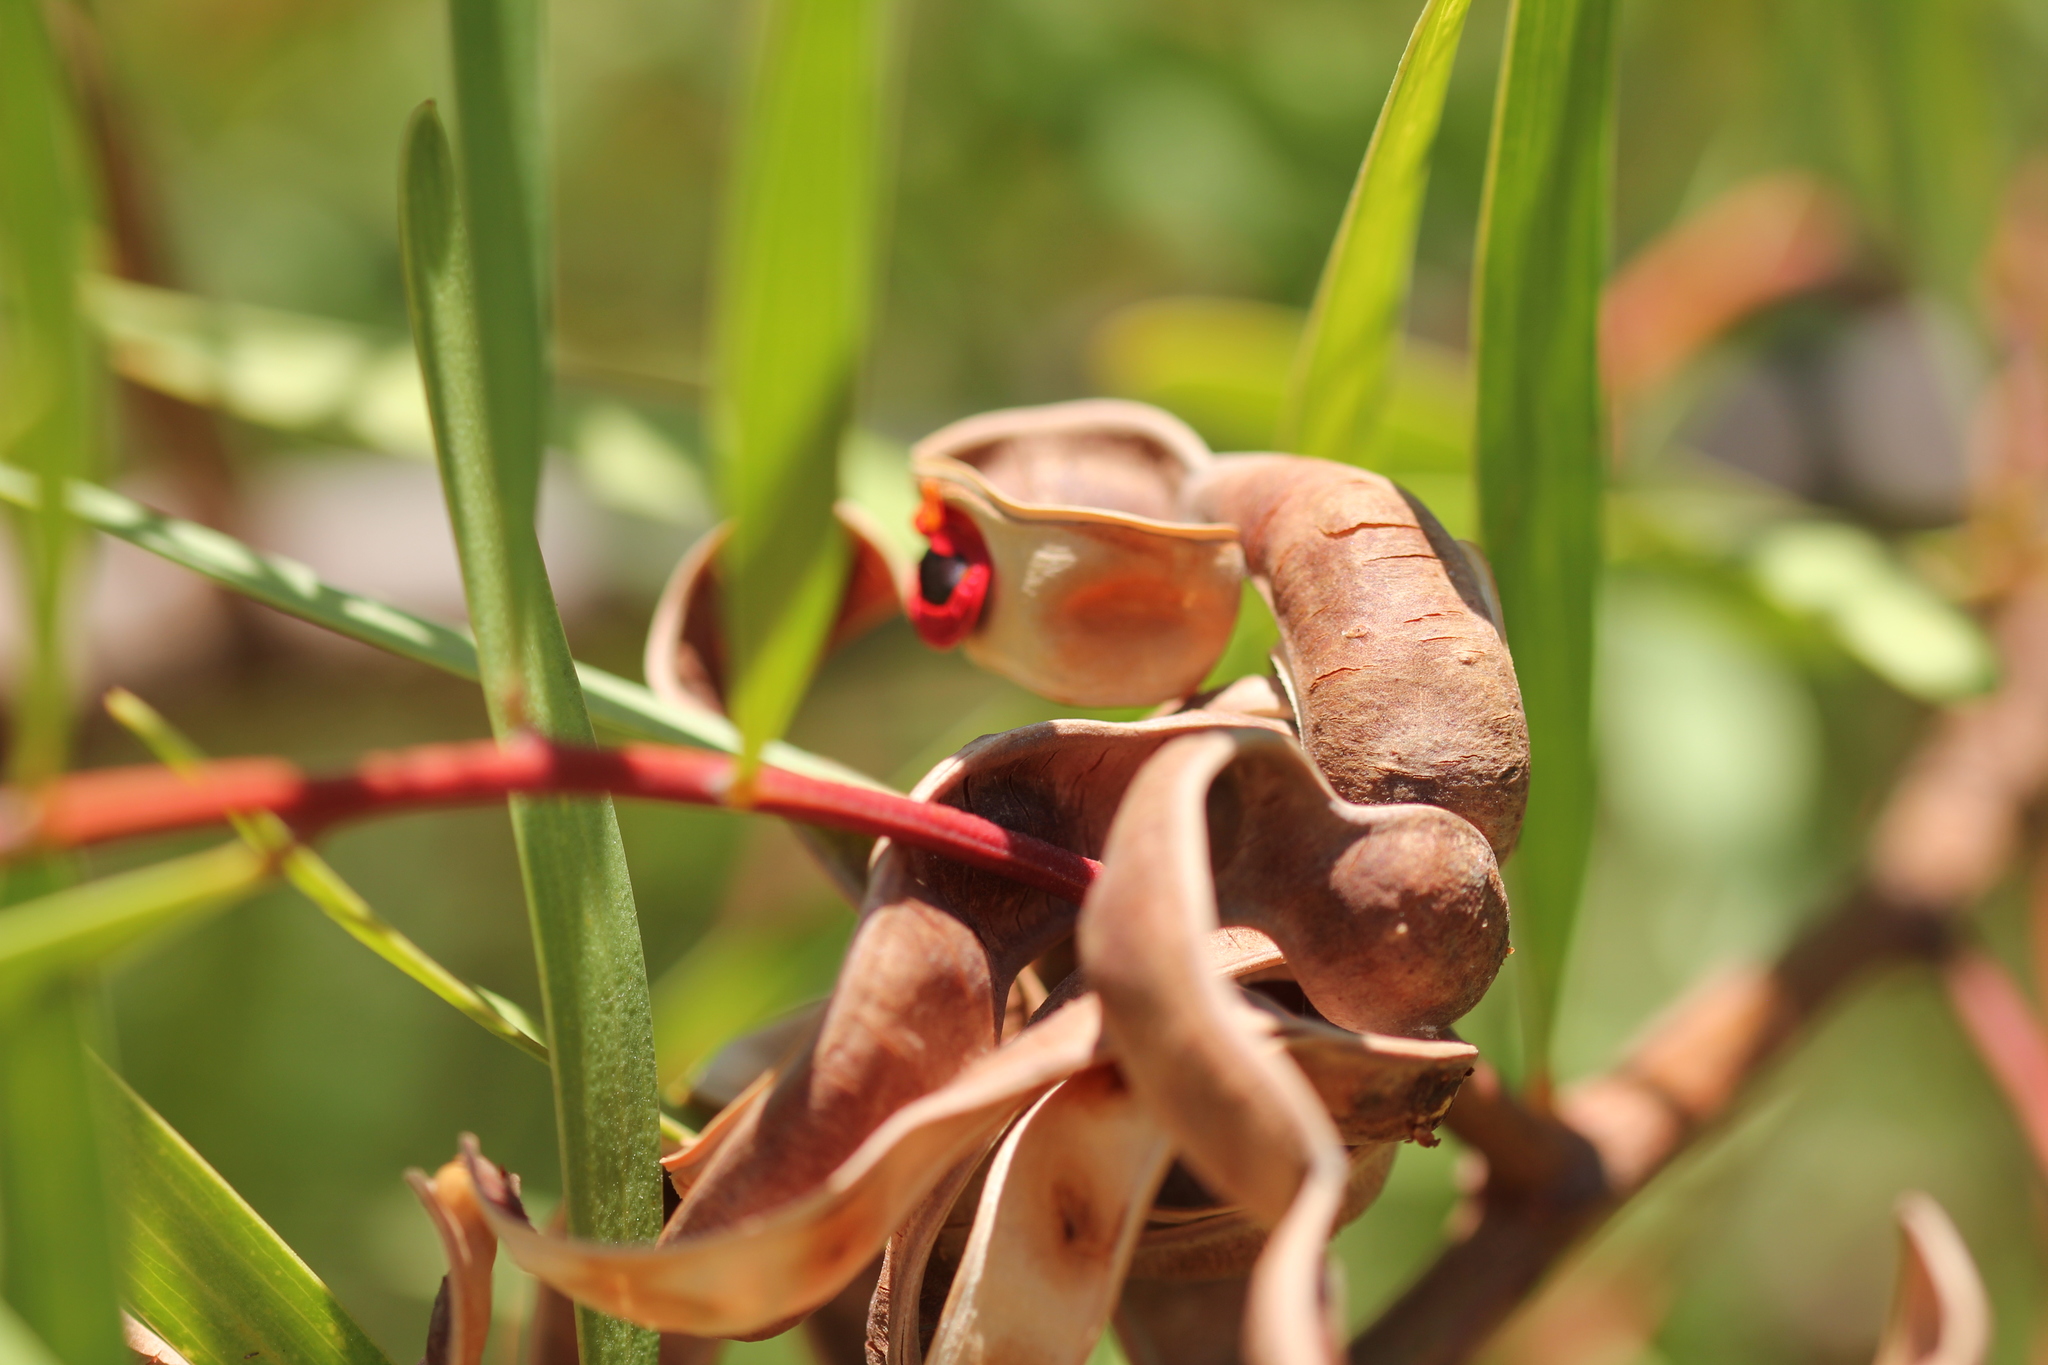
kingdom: Plantae
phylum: Tracheophyta
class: Magnoliopsida
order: Fabales
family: Fabaceae
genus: Acacia
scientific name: Acacia cyclops
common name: Coastal wattle
